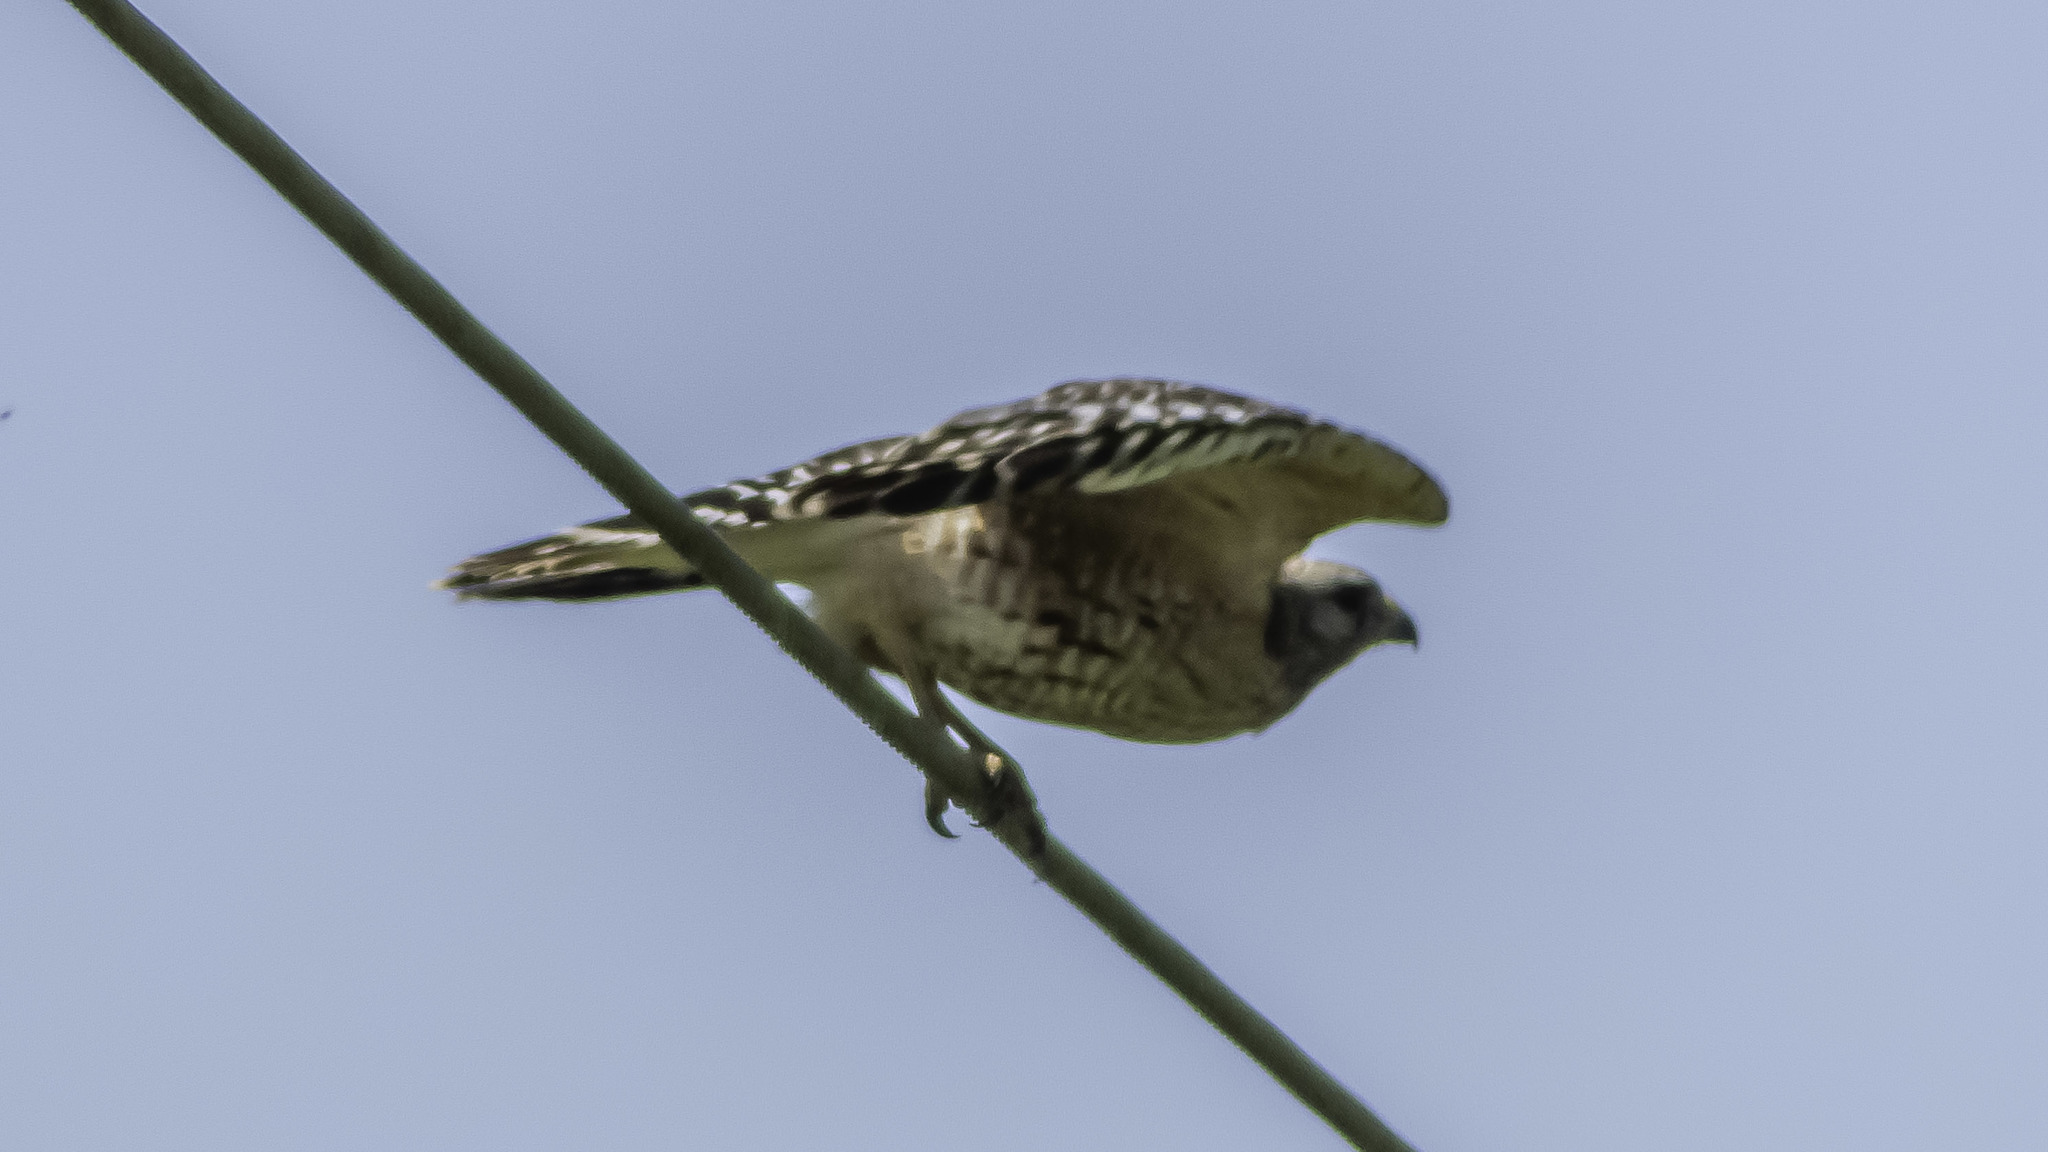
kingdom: Animalia
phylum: Chordata
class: Aves
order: Accipitriformes
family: Accipitridae
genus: Buteo
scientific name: Buteo lineatus
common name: Red-shouldered hawk
